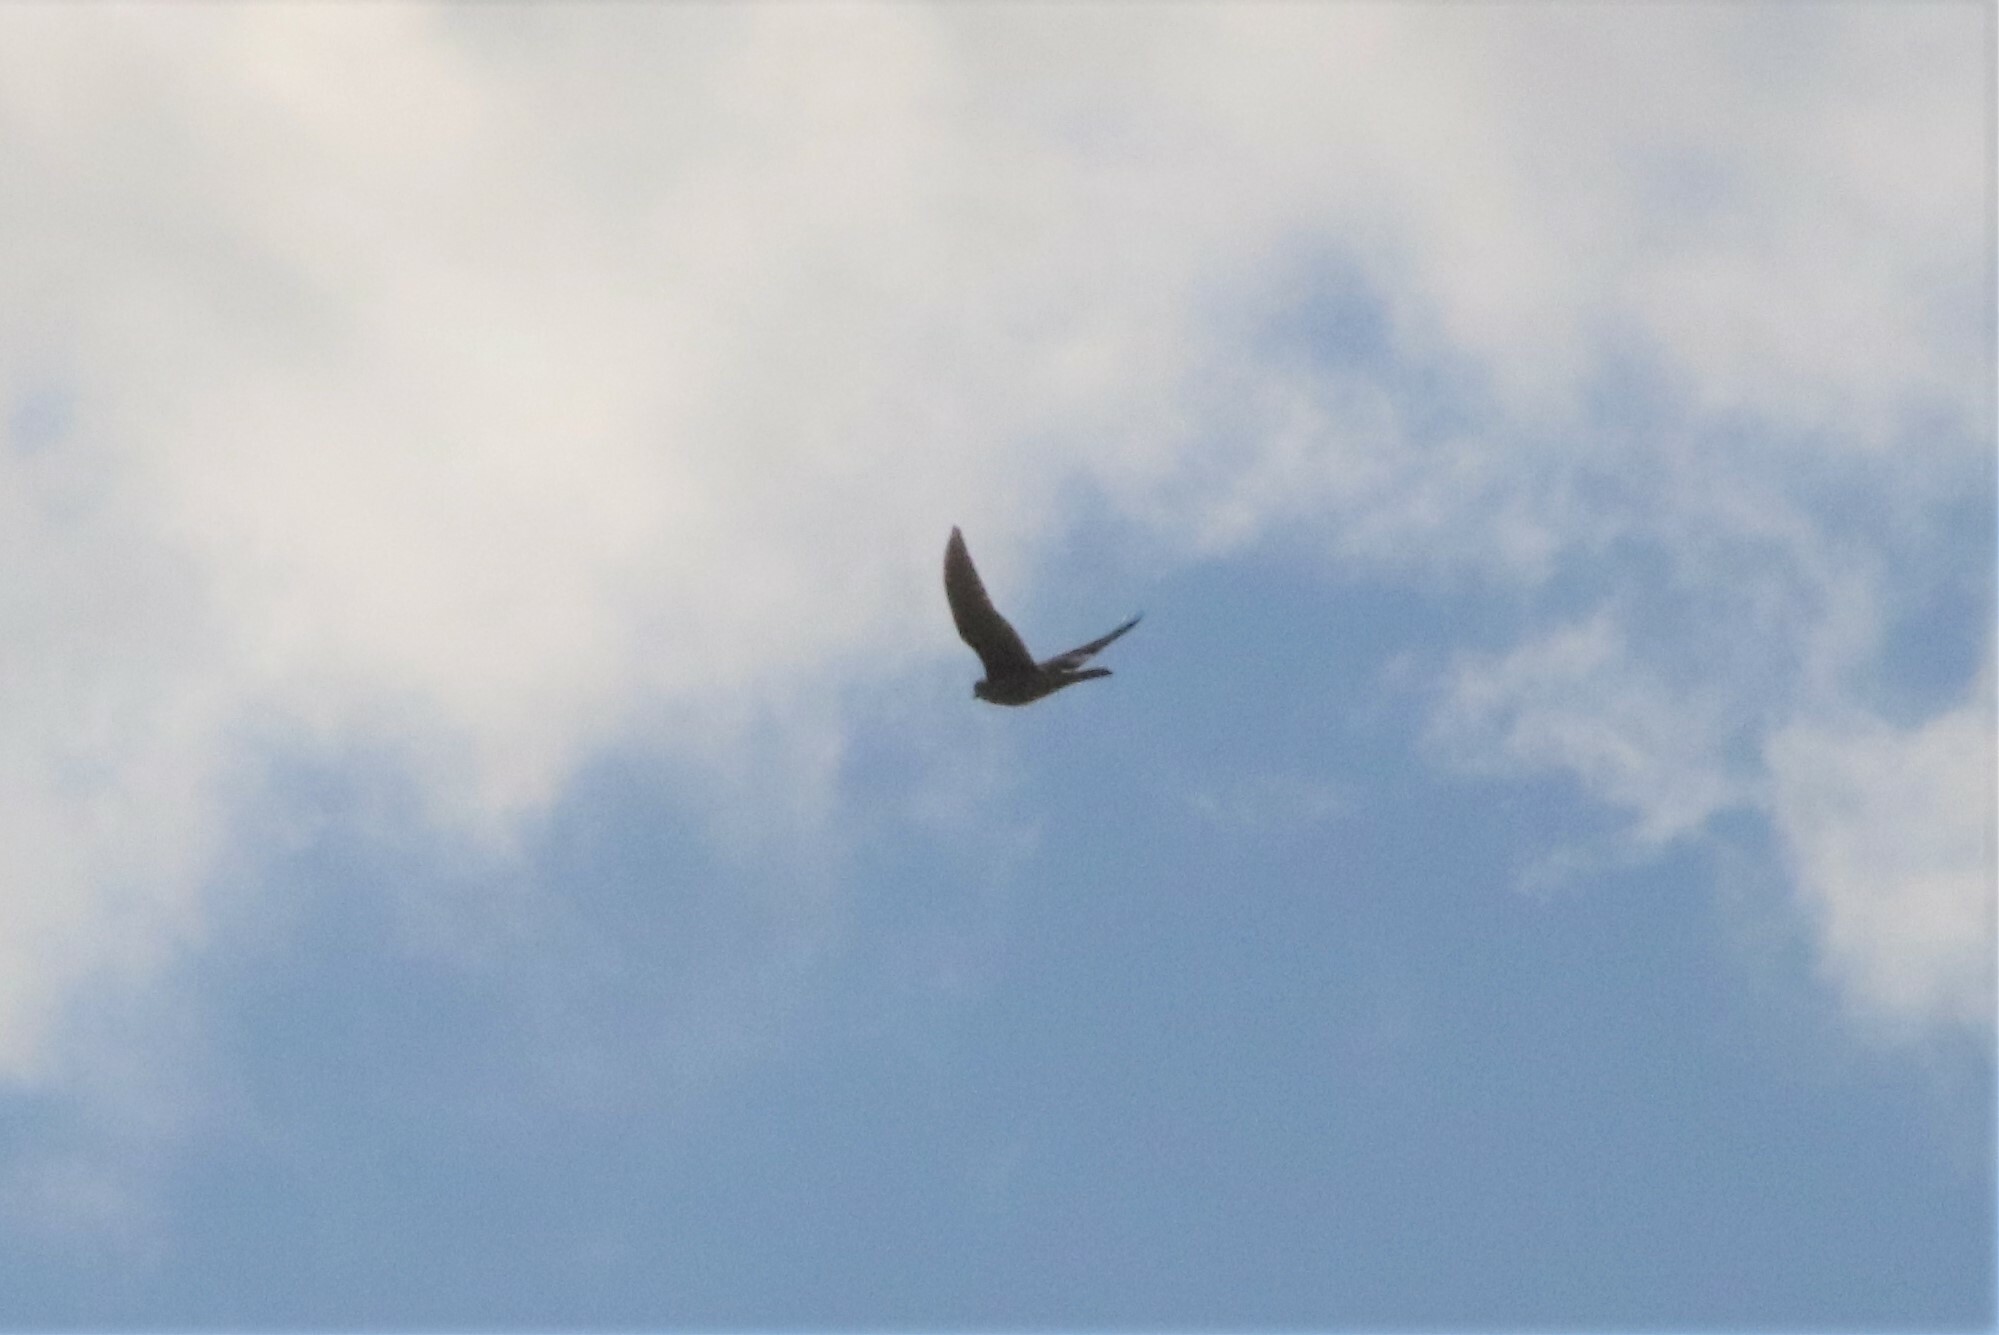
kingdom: Animalia
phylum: Chordata
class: Aves
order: Falconiformes
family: Falconidae
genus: Falco
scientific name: Falco peregrinus
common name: Peregrine falcon
